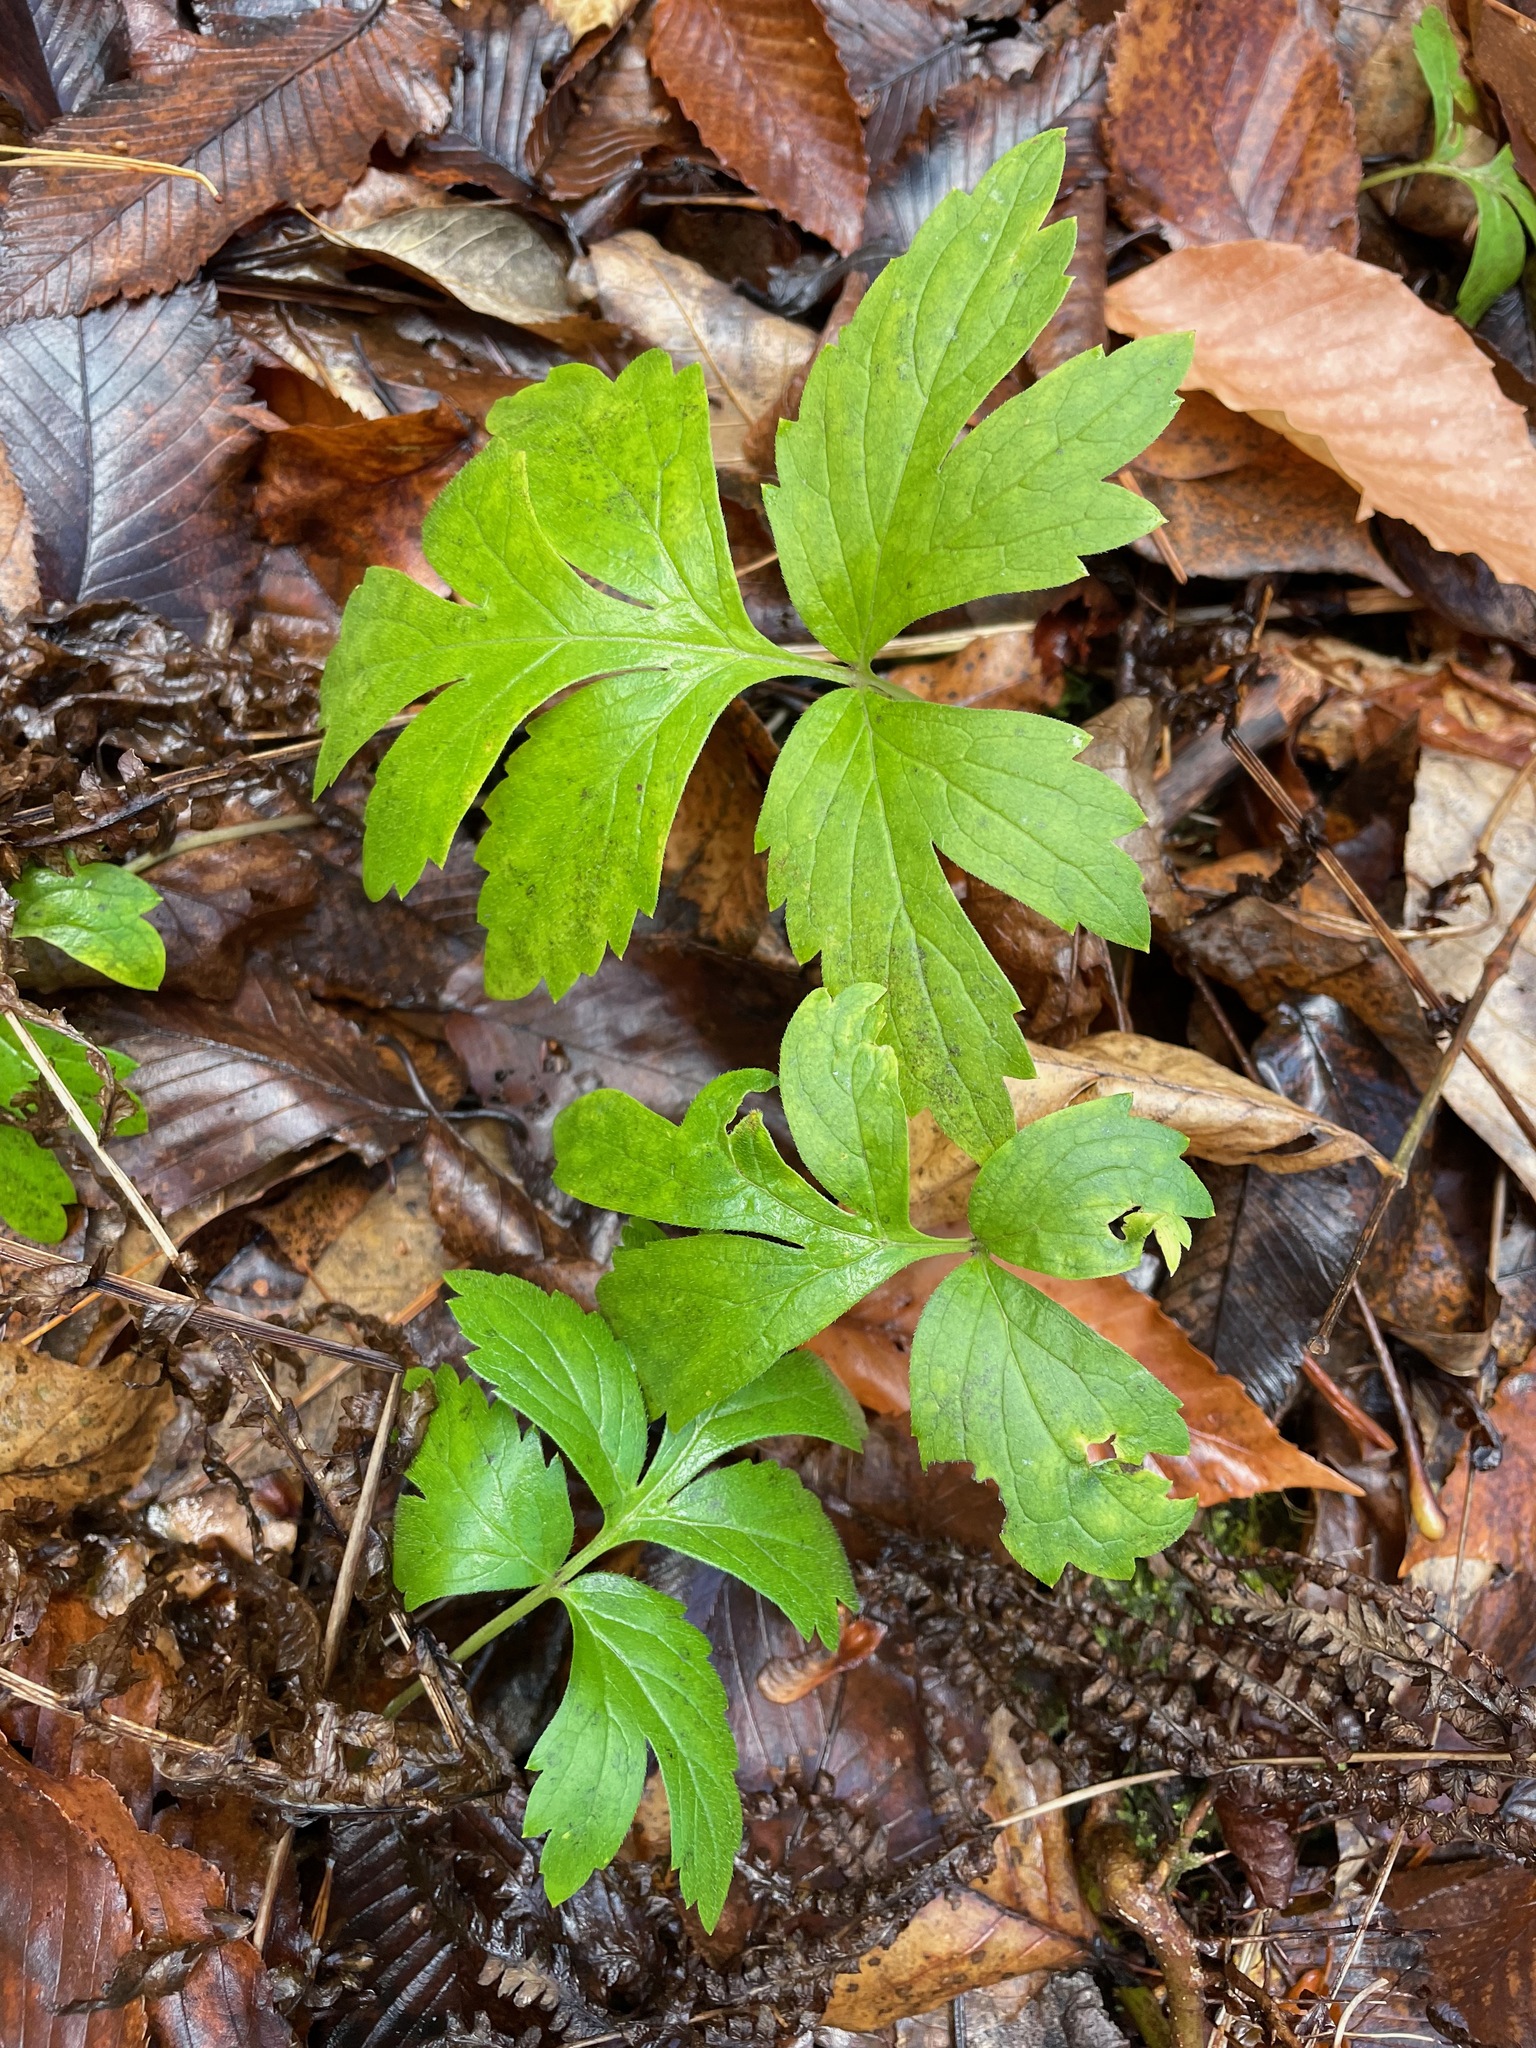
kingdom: Plantae
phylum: Tracheophyta
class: Magnoliopsida
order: Boraginales
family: Hydrophyllaceae
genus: Hydrophyllum
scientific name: Hydrophyllum virginianum
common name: Virginia waterleaf
